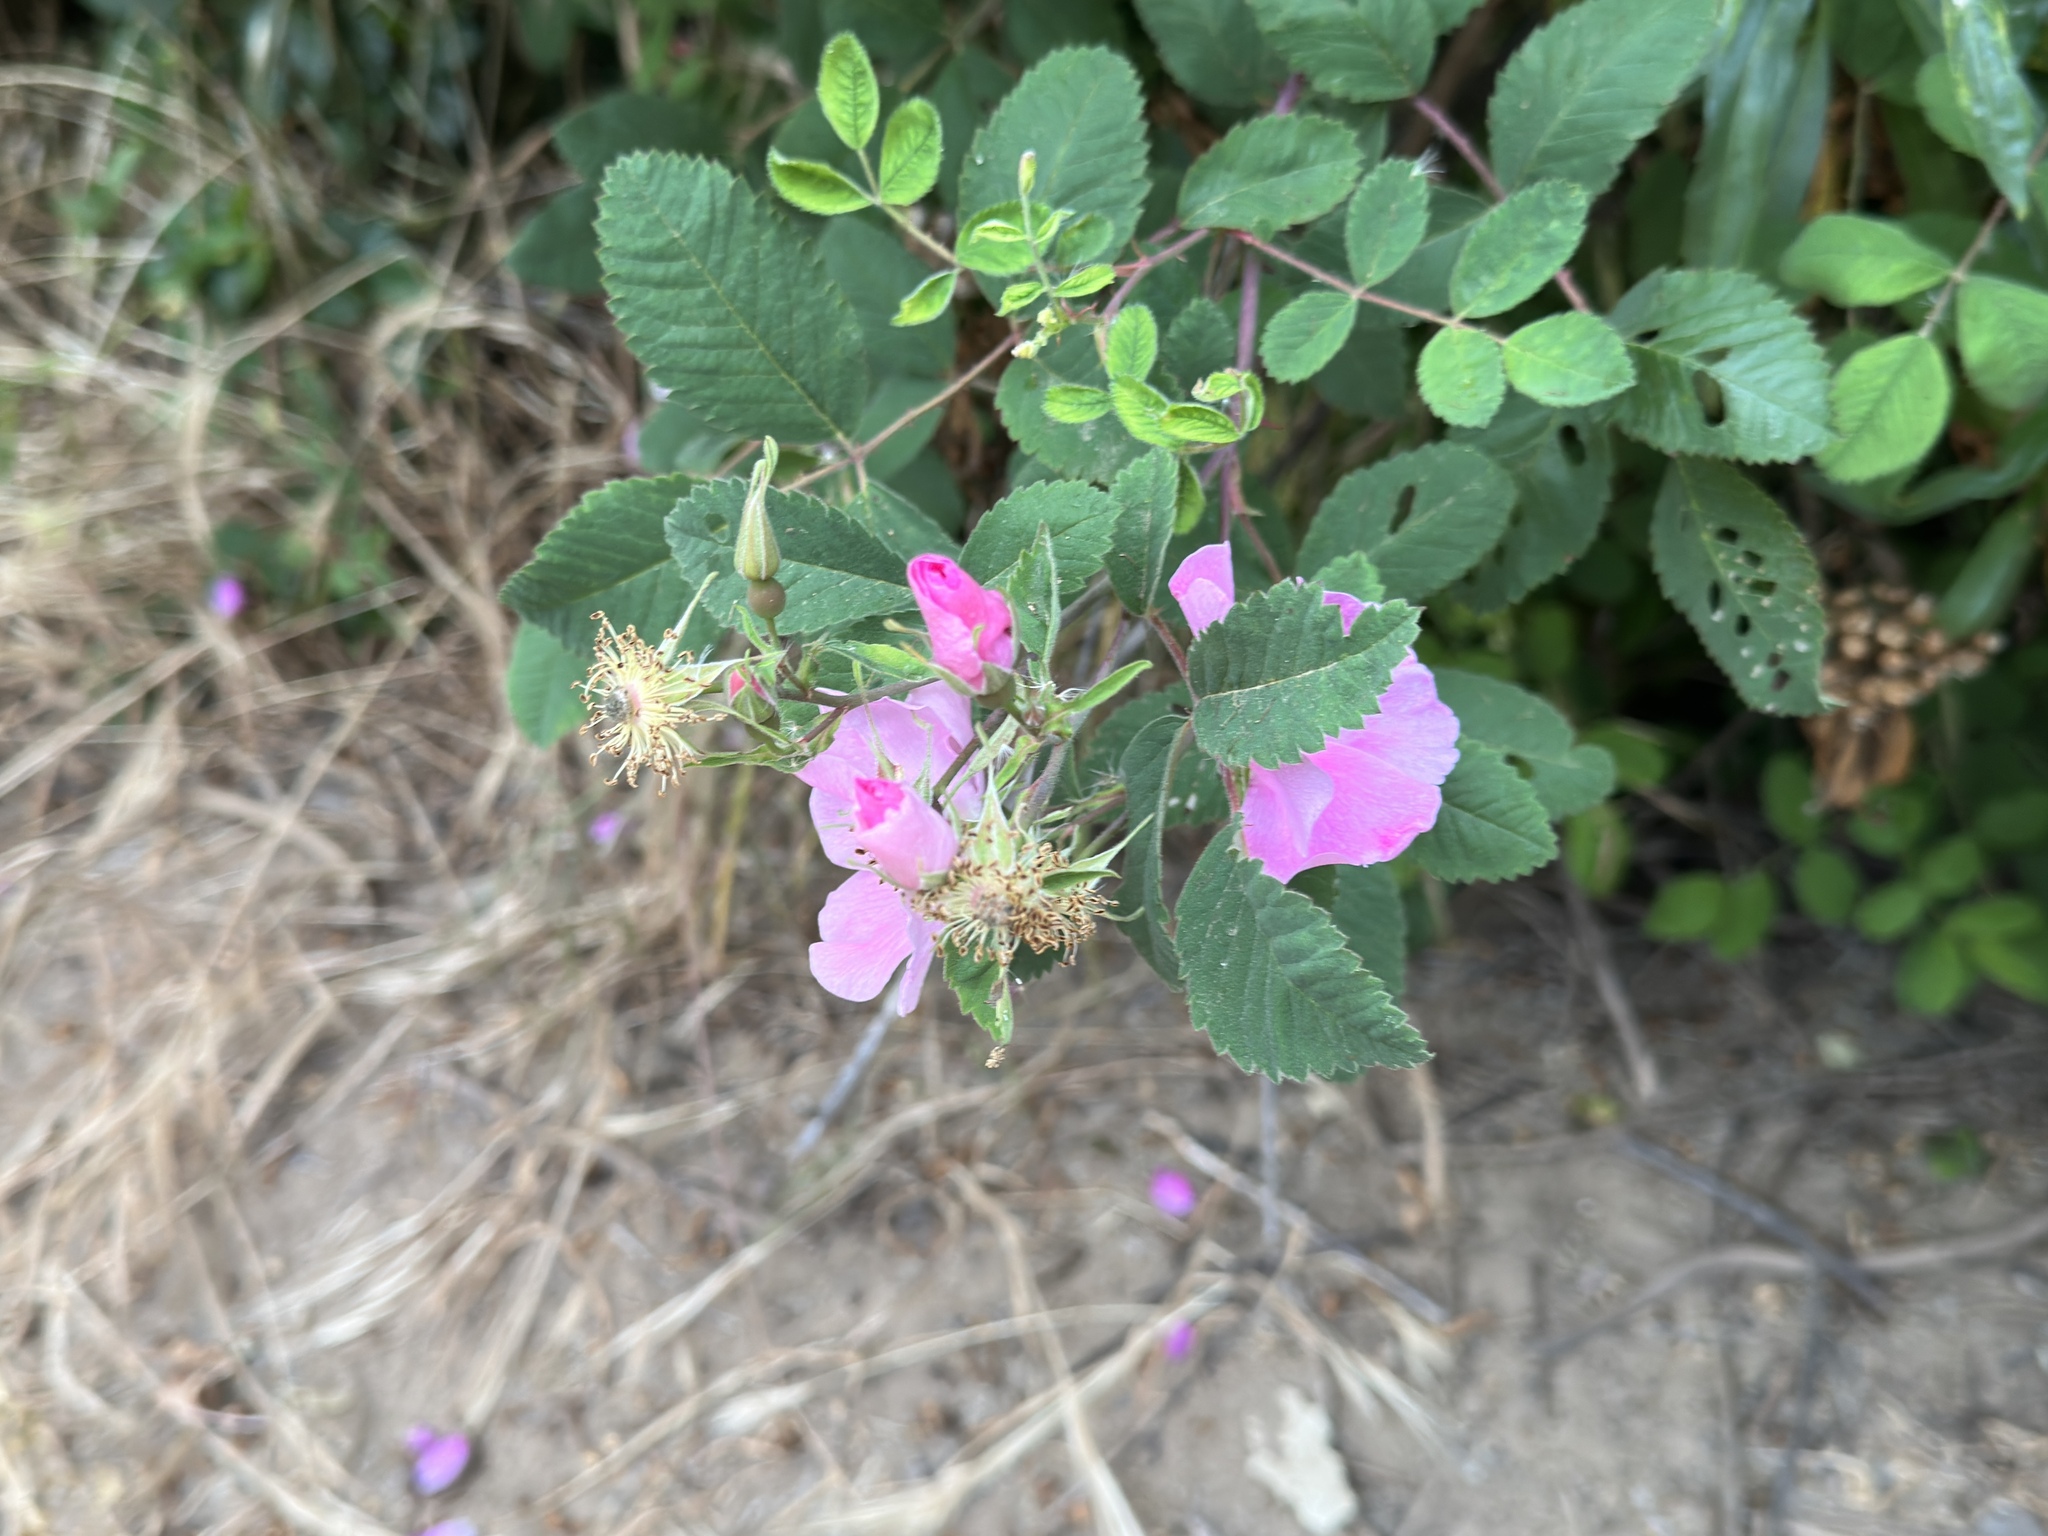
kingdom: Plantae
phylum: Tracheophyta
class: Magnoliopsida
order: Rosales
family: Rosaceae
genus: Rosa
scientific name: Rosa californica
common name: California rose
